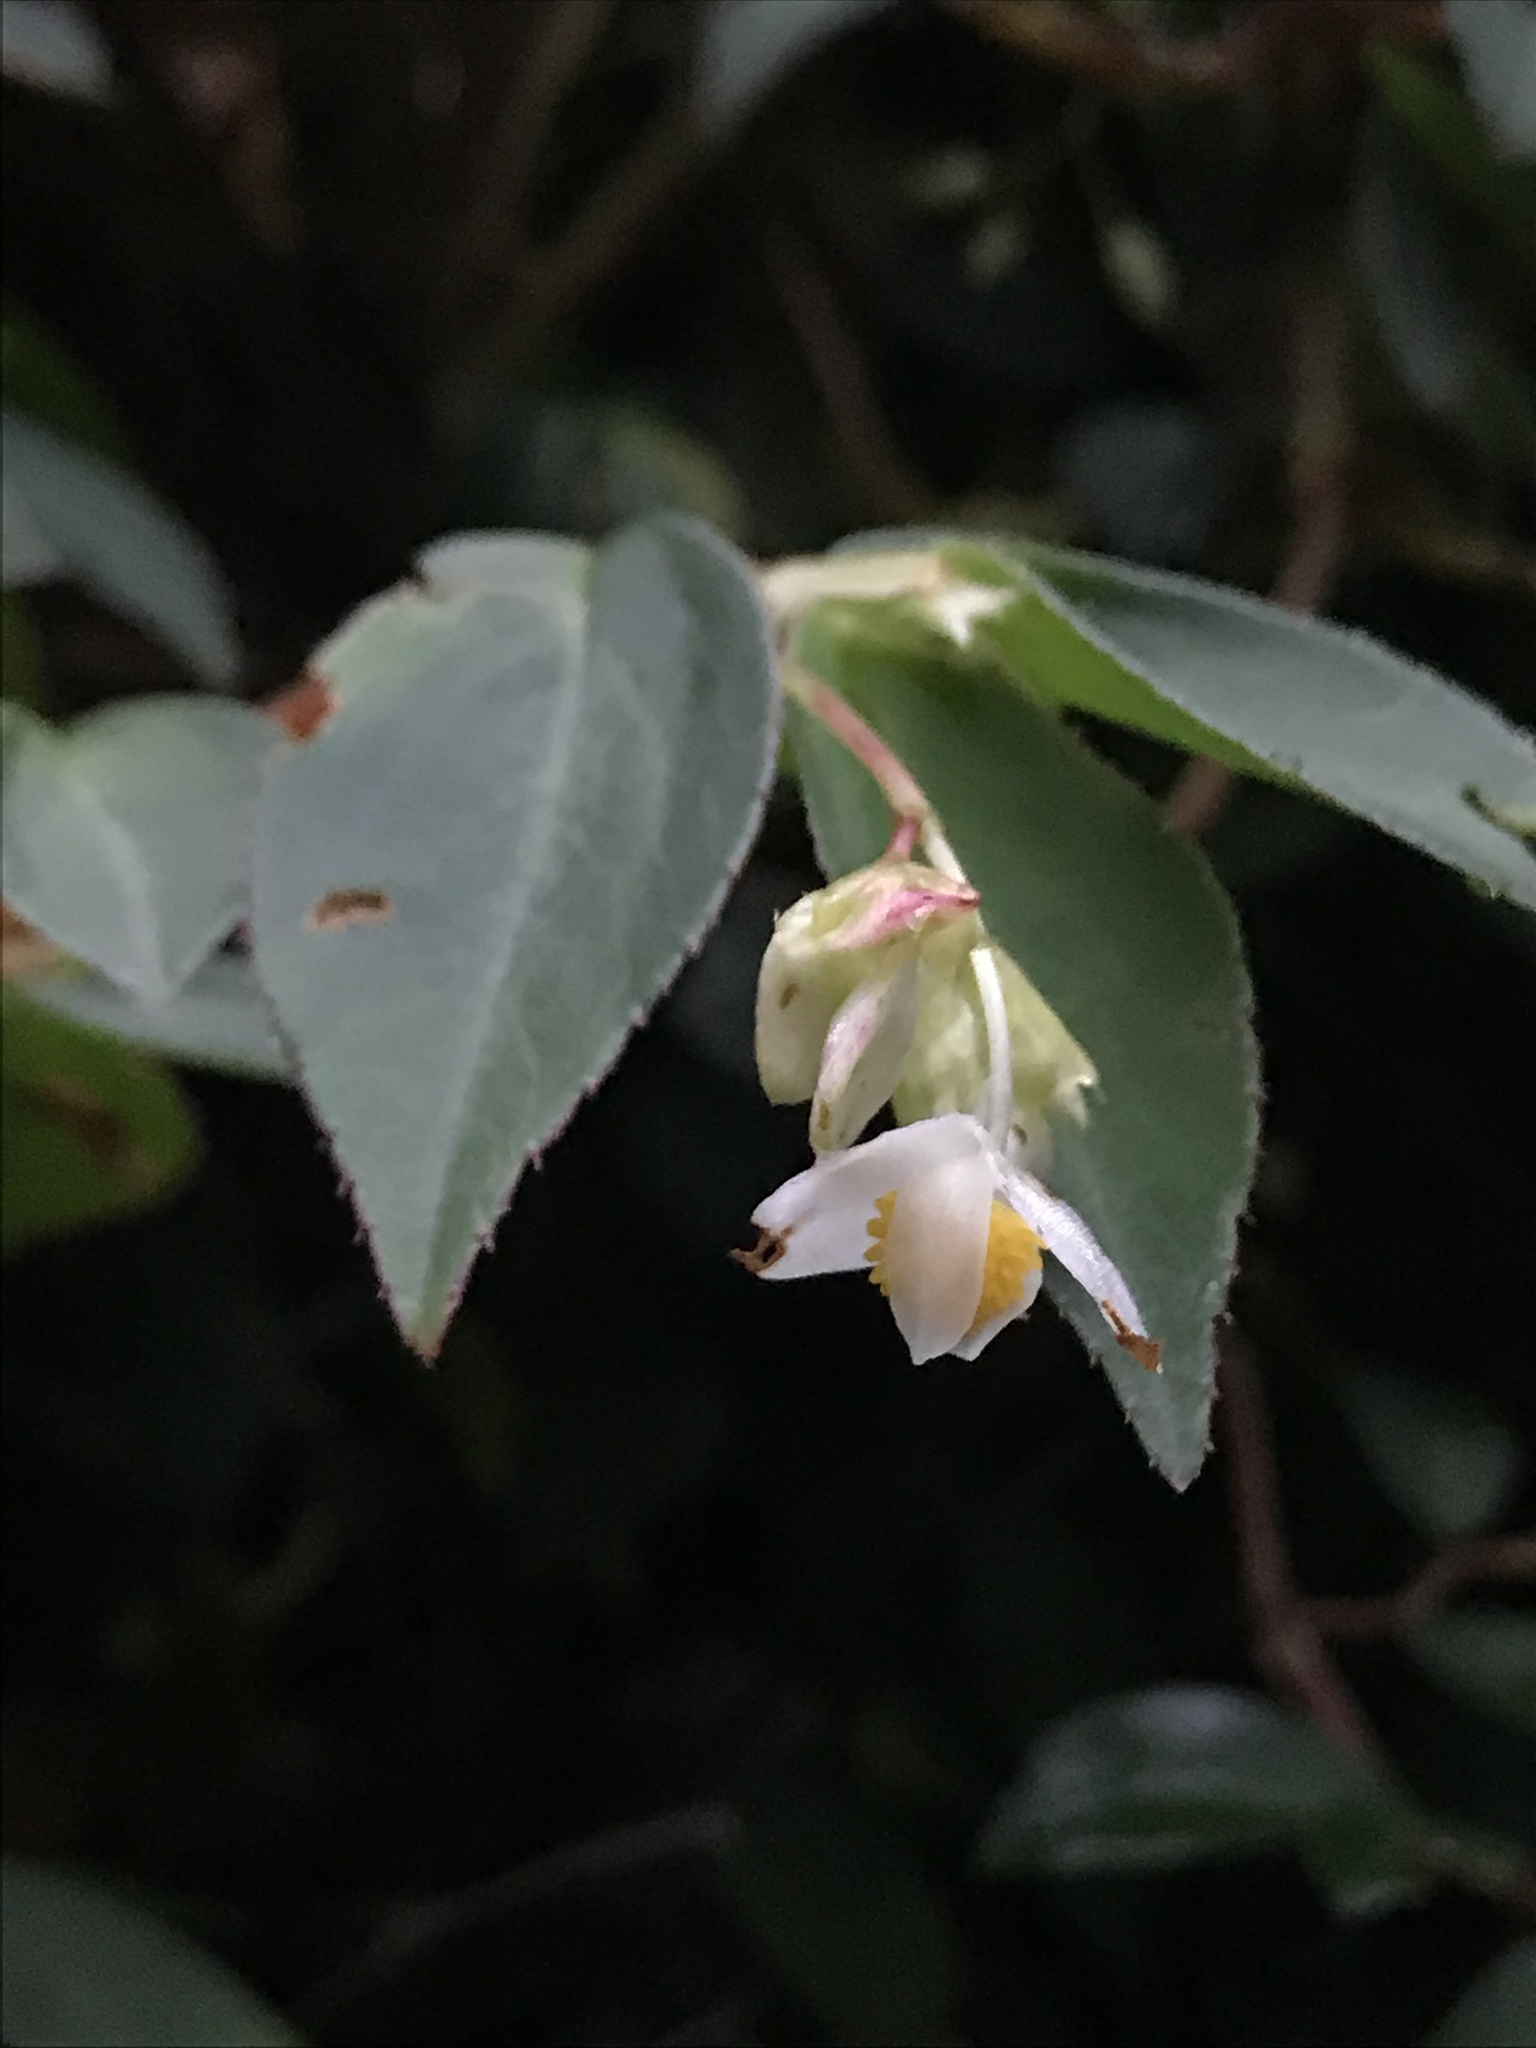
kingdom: Plantae
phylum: Tracheophyta
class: Magnoliopsida
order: Cucurbitales
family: Begoniaceae
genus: Begonia
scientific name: Begonia foliosa
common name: Fern begonia
